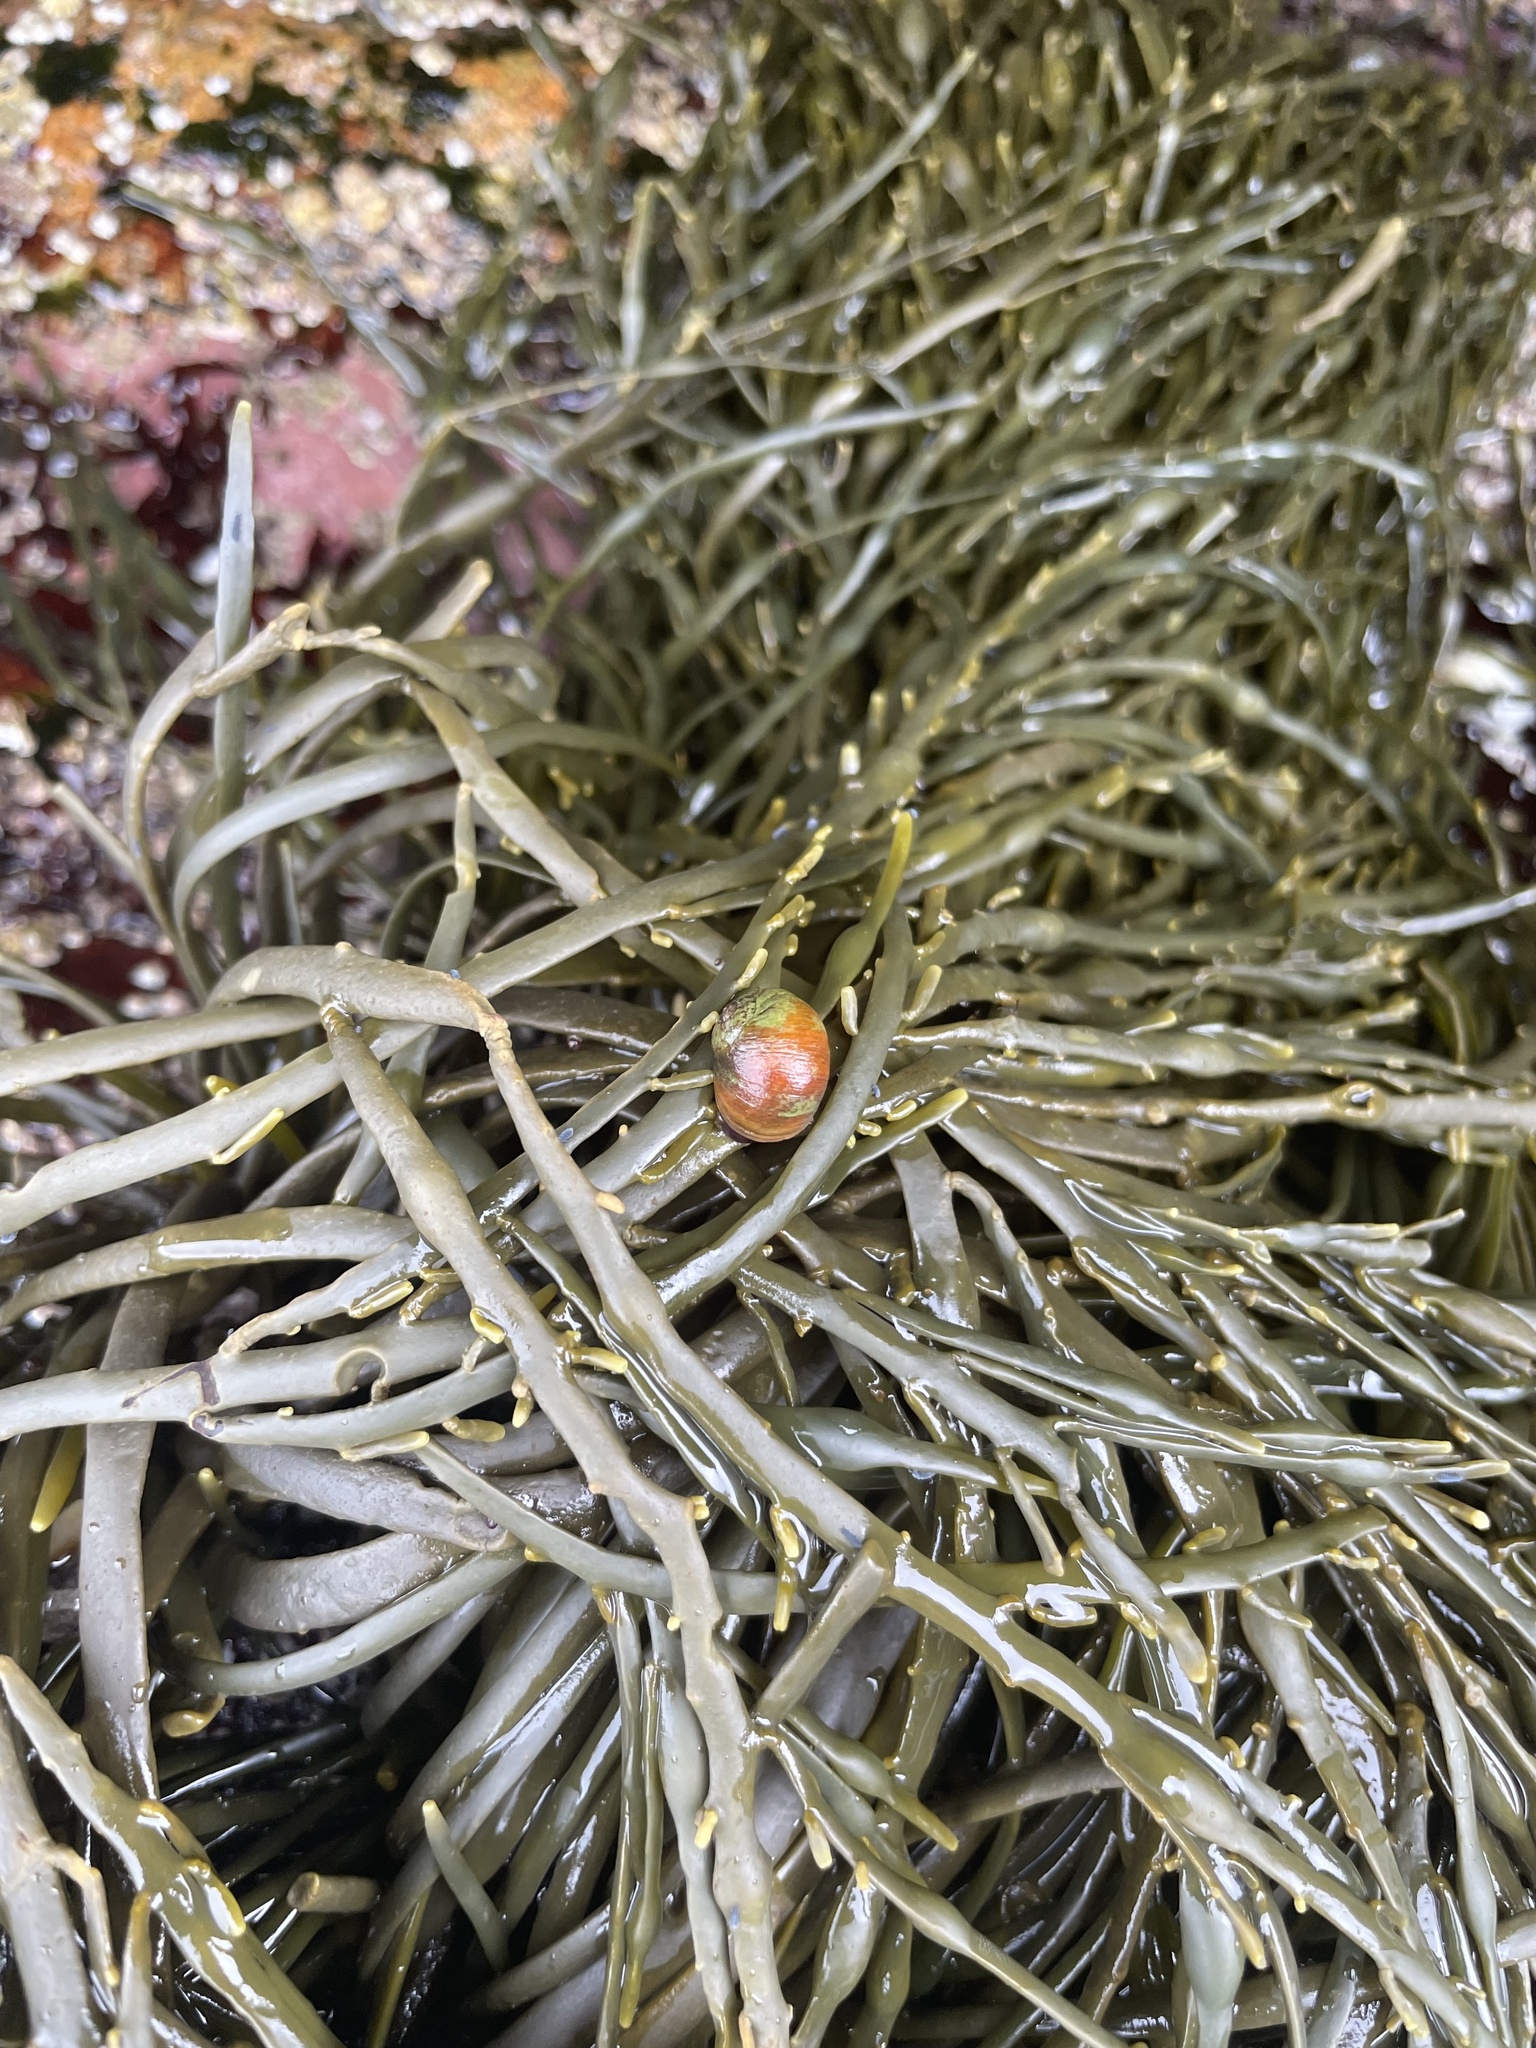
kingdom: Animalia
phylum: Mollusca
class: Gastropoda
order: Littorinimorpha
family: Littorinidae
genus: Littorina
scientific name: Littorina obtusata
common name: Flat periwinkle
